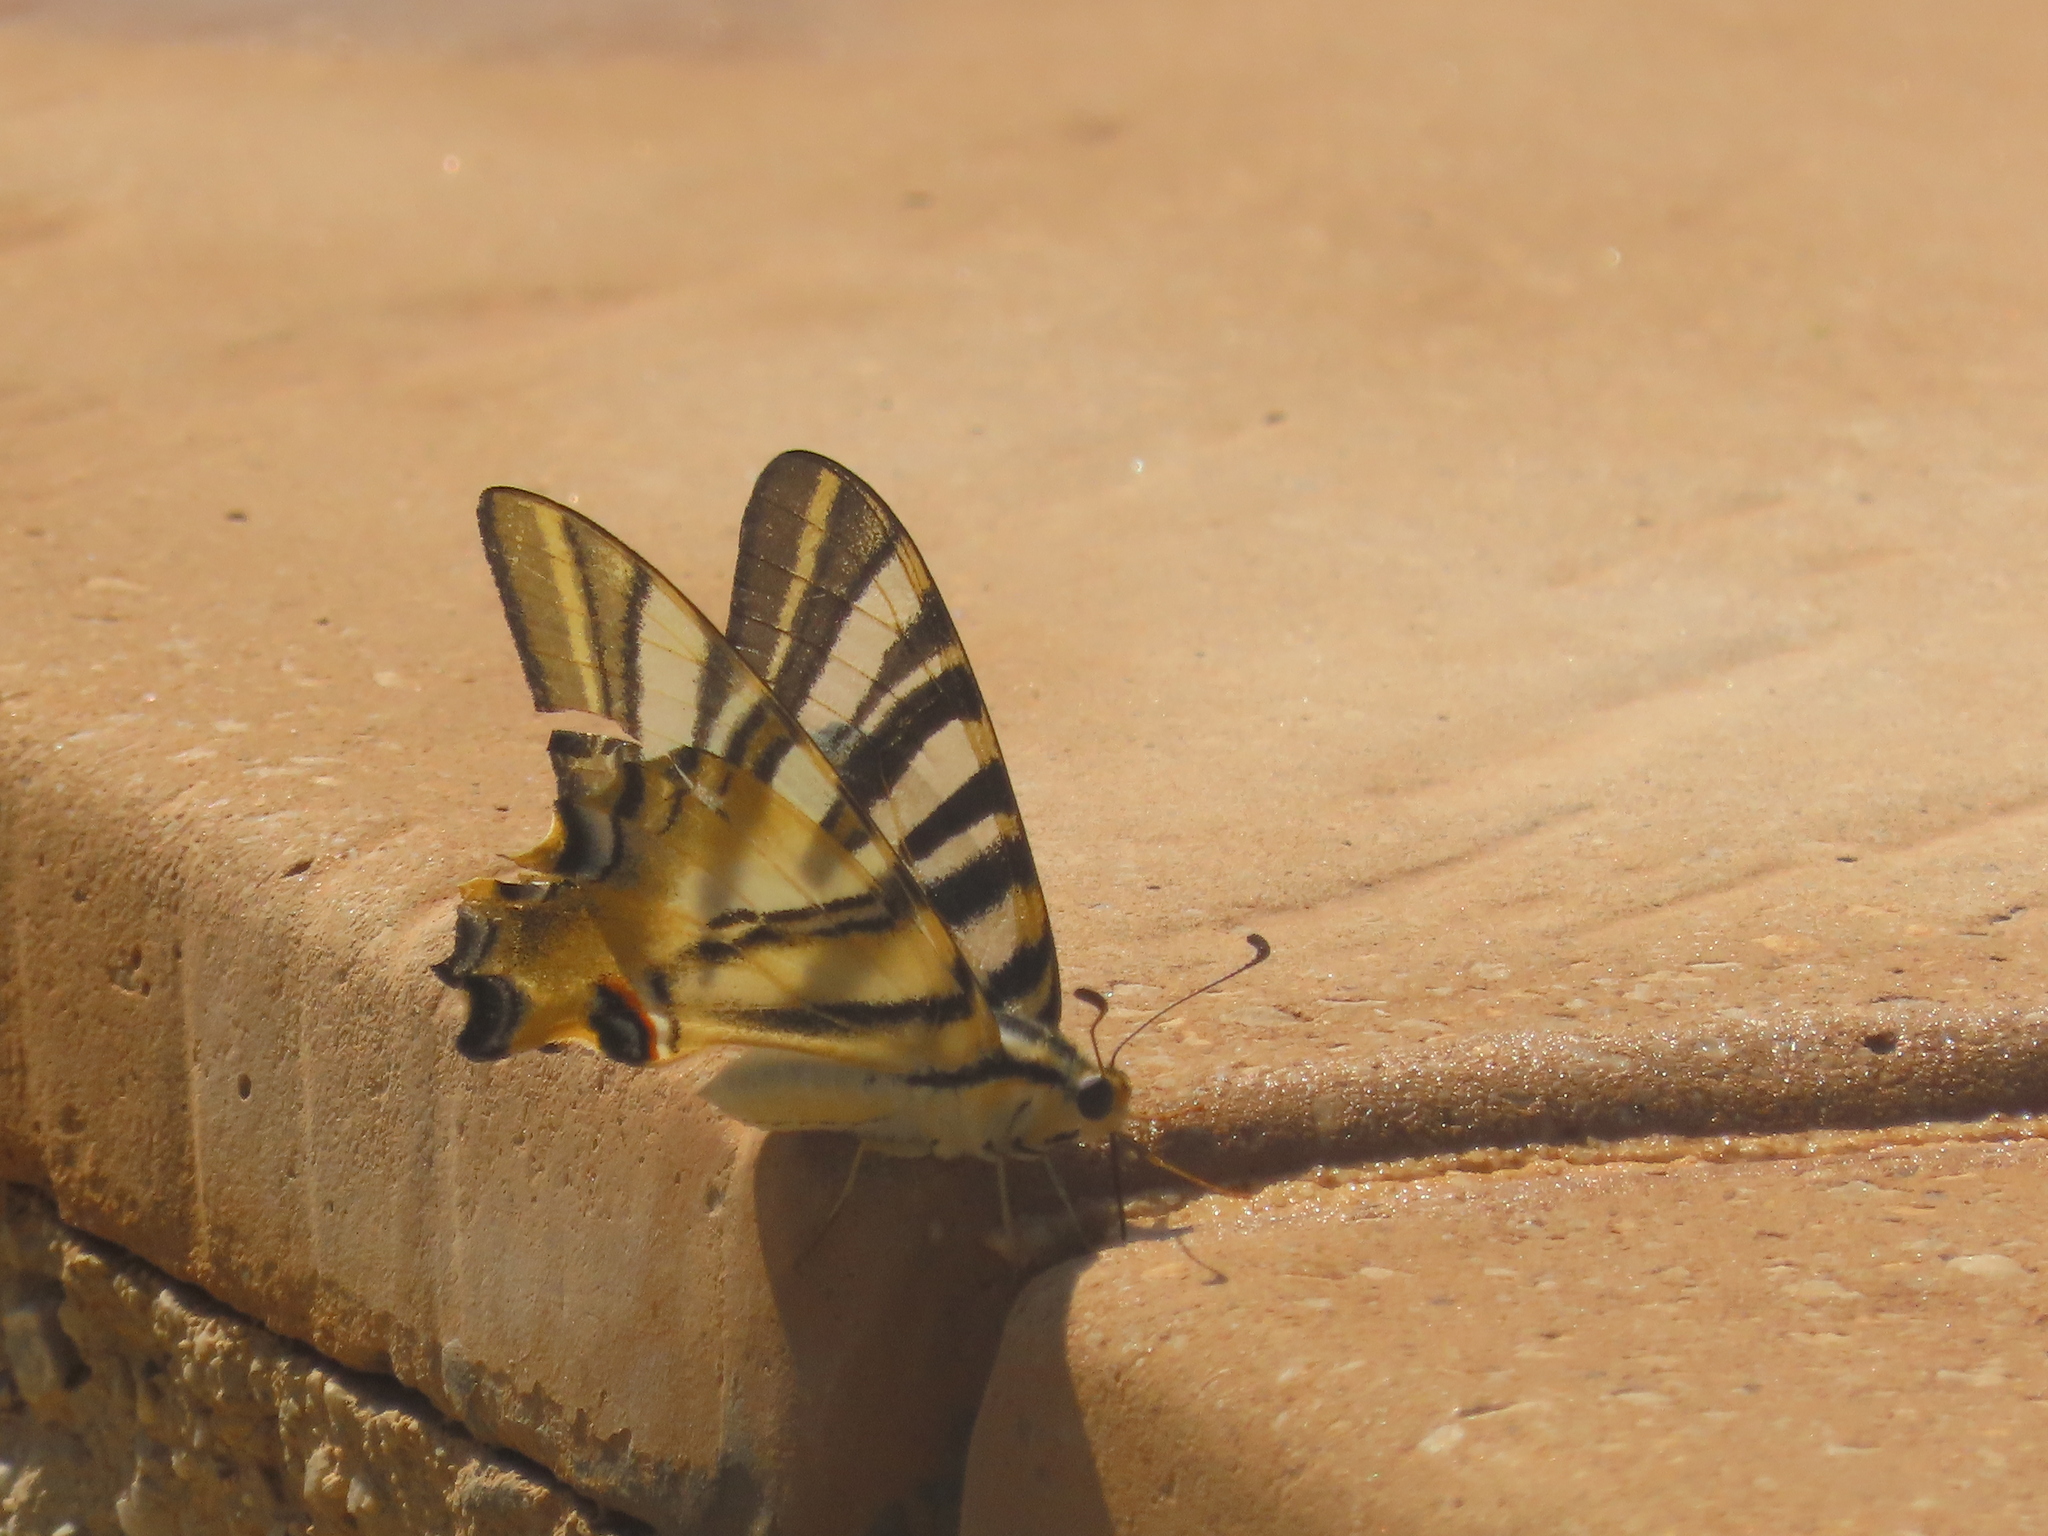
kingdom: Animalia
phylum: Arthropoda
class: Insecta
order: Lepidoptera
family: Papilionidae
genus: Iphiclides
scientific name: Iphiclides feisthamelii
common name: Iberian scarce swallowtail
